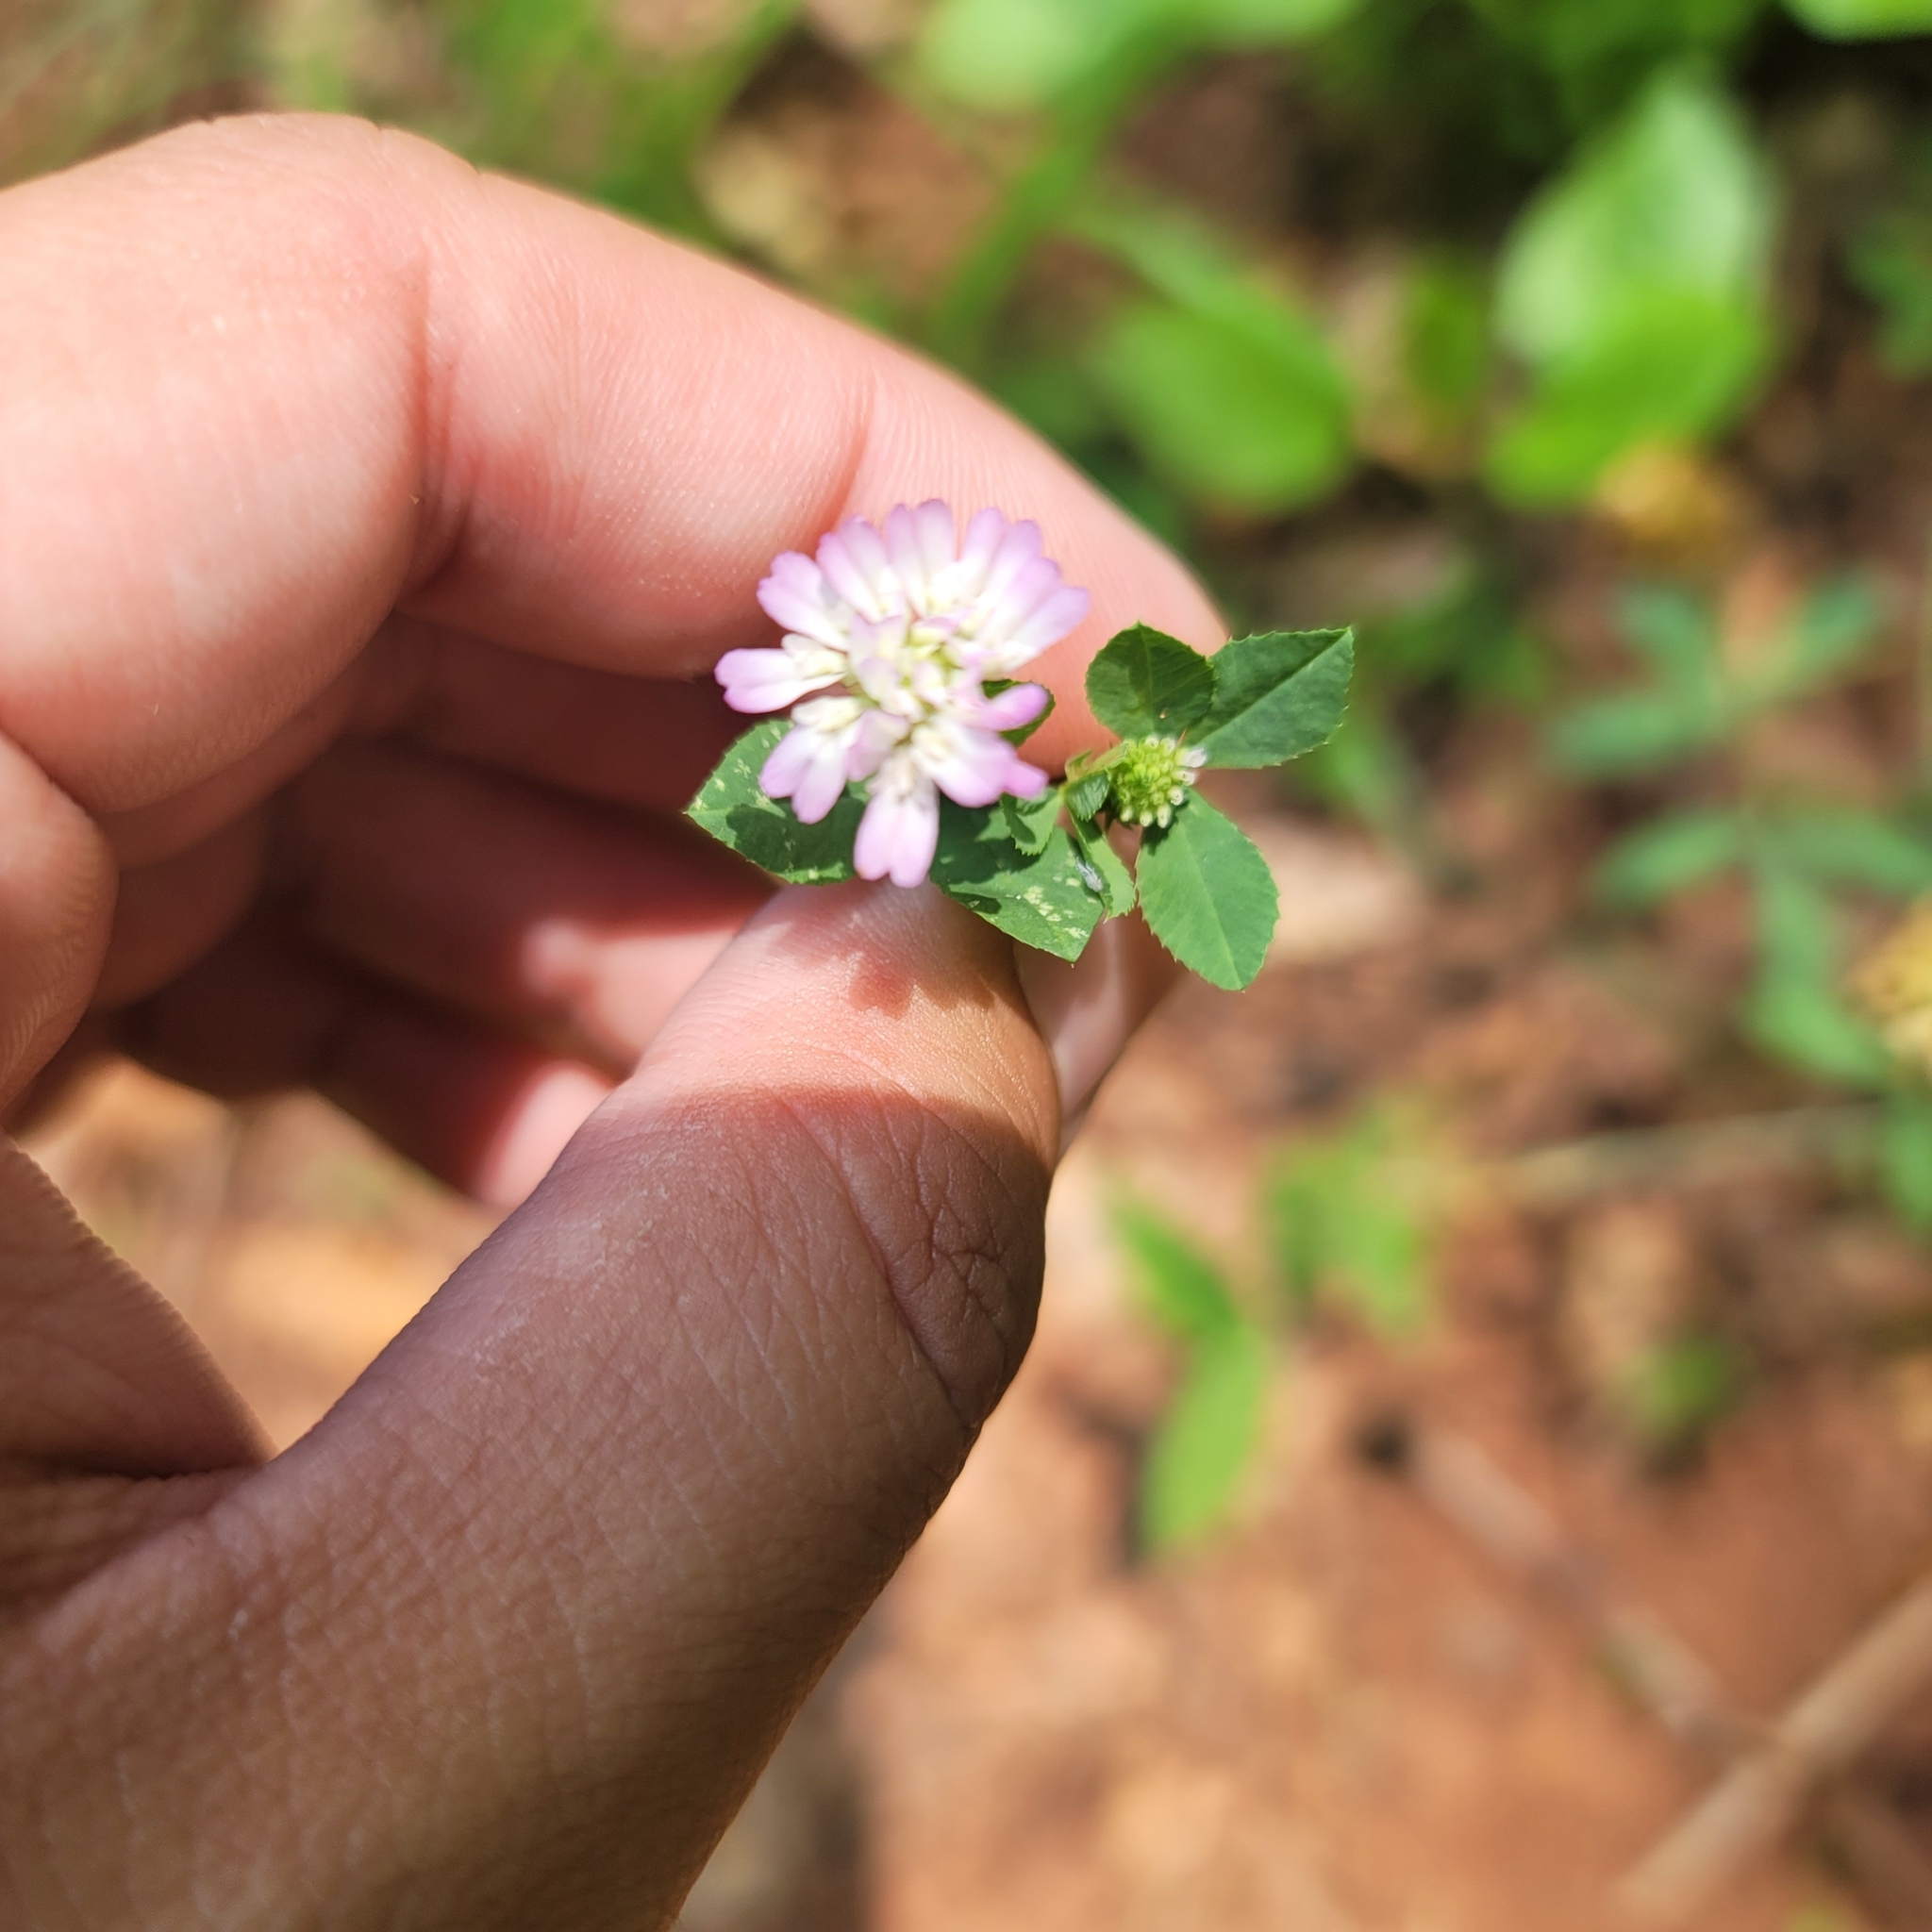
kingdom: Plantae
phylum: Tracheophyta
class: Magnoliopsida
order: Fabales
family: Fabaceae
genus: Trifolium
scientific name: Trifolium resupinatum
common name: Reversed clover
